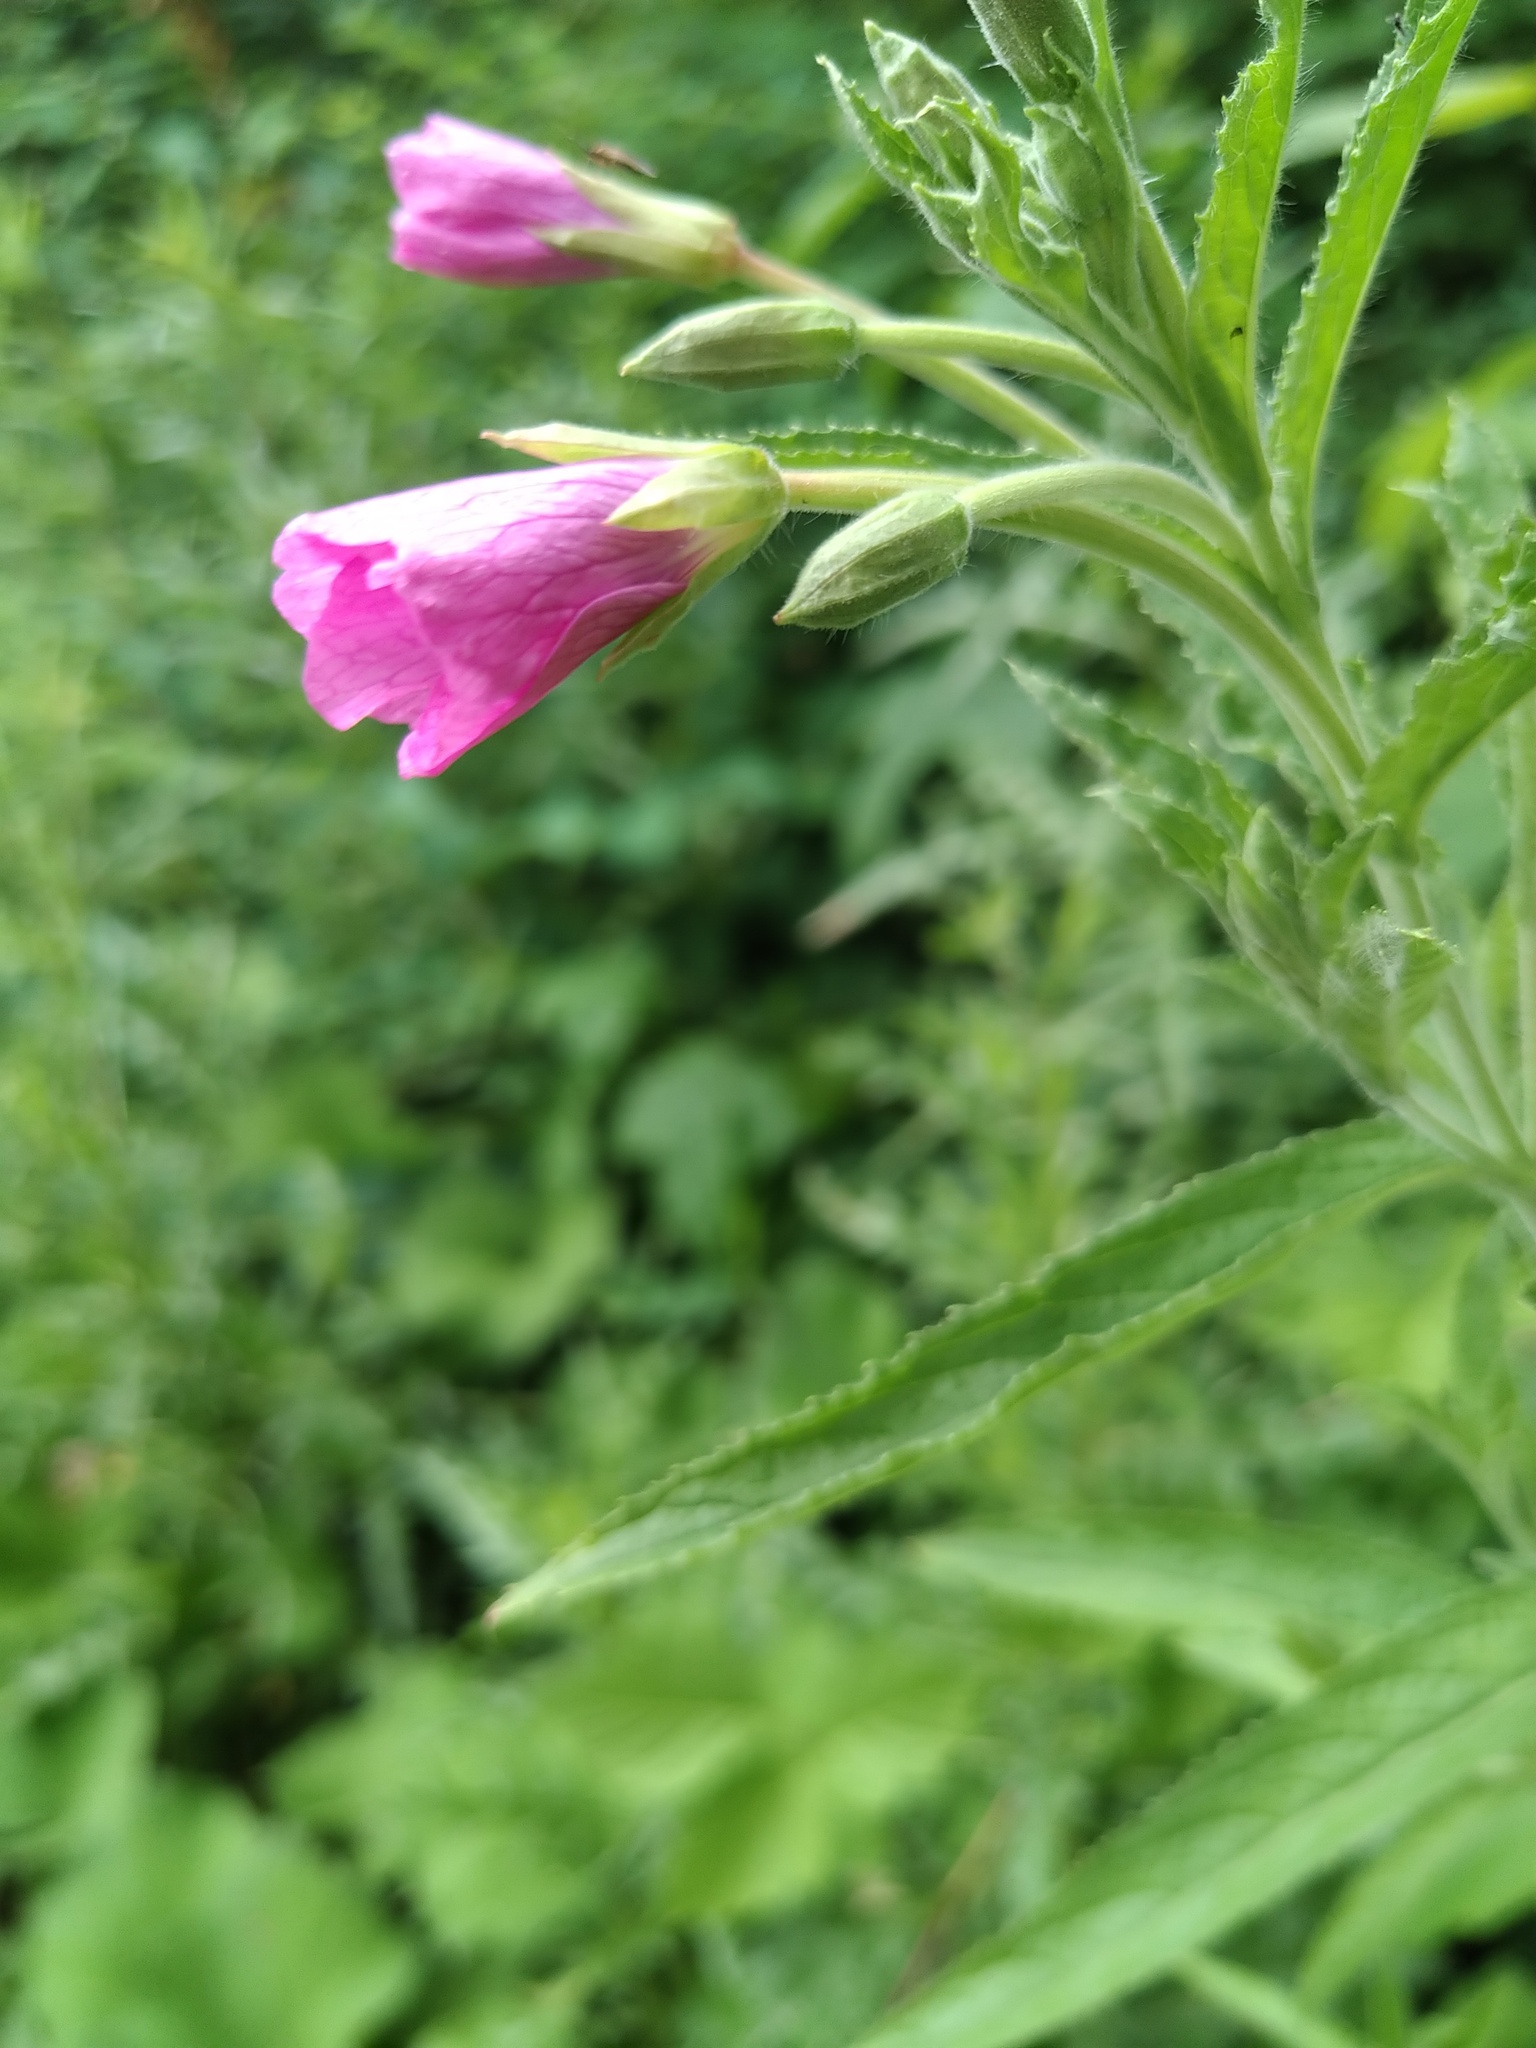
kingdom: Plantae
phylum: Tracheophyta
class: Magnoliopsida
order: Myrtales
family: Onagraceae
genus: Epilobium
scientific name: Epilobium hirsutum
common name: Great willowherb
